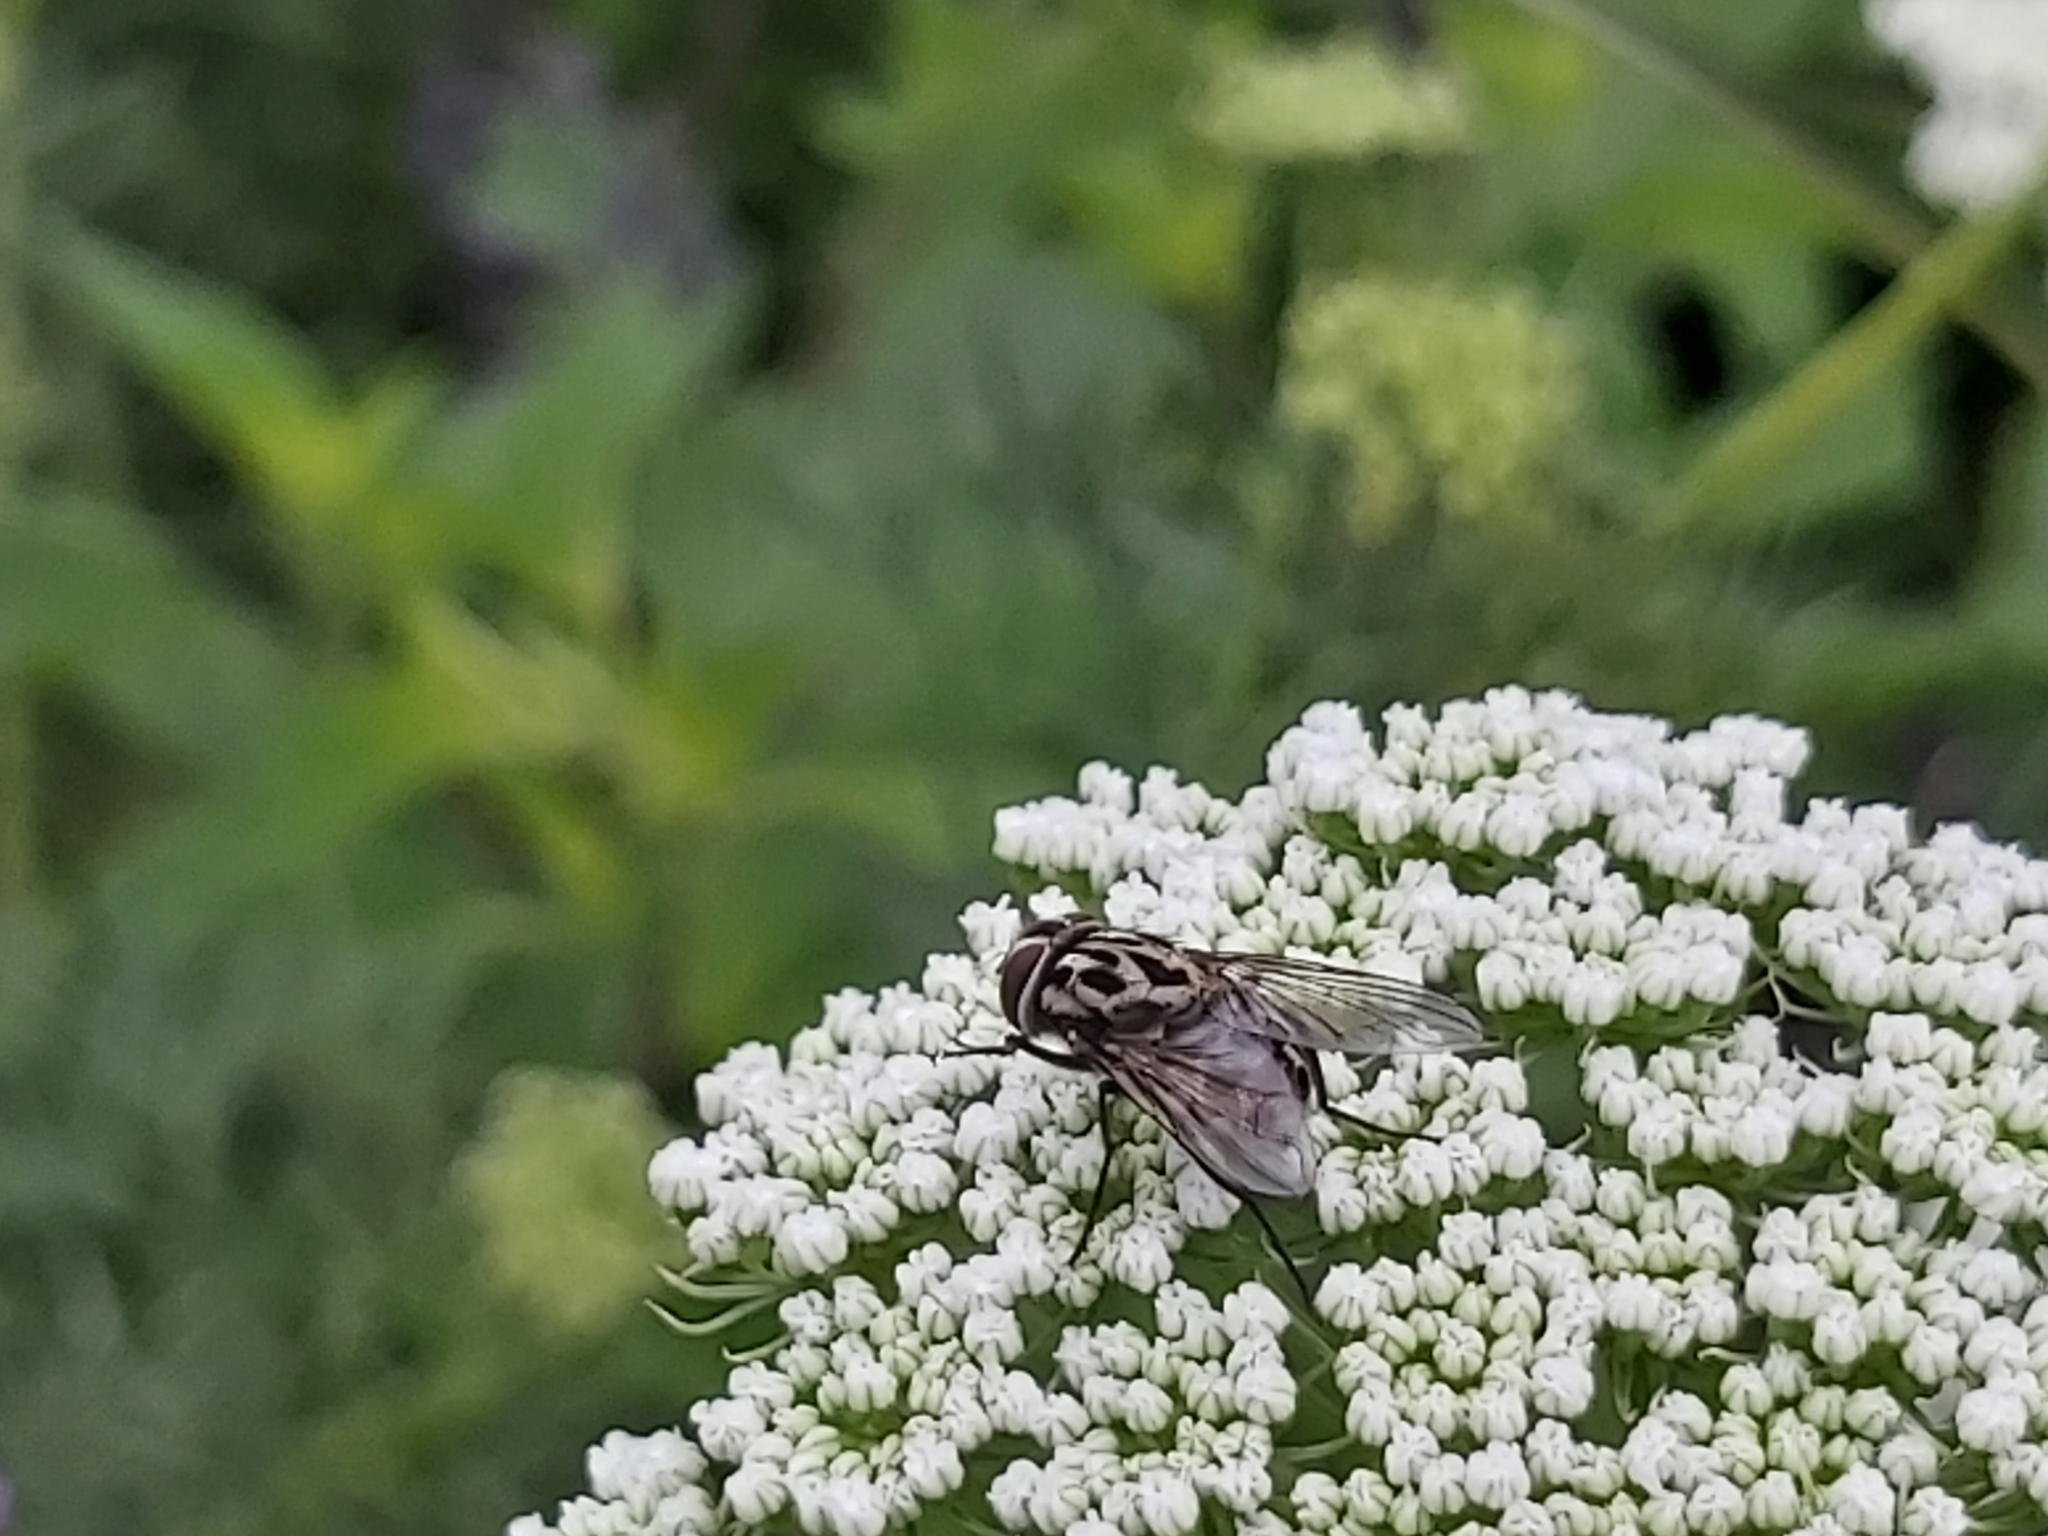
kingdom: Animalia
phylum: Arthropoda
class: Insecta
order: Diptera
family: Muscidae
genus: Graphomya
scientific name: Graphomya maculata
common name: Muscid fly
